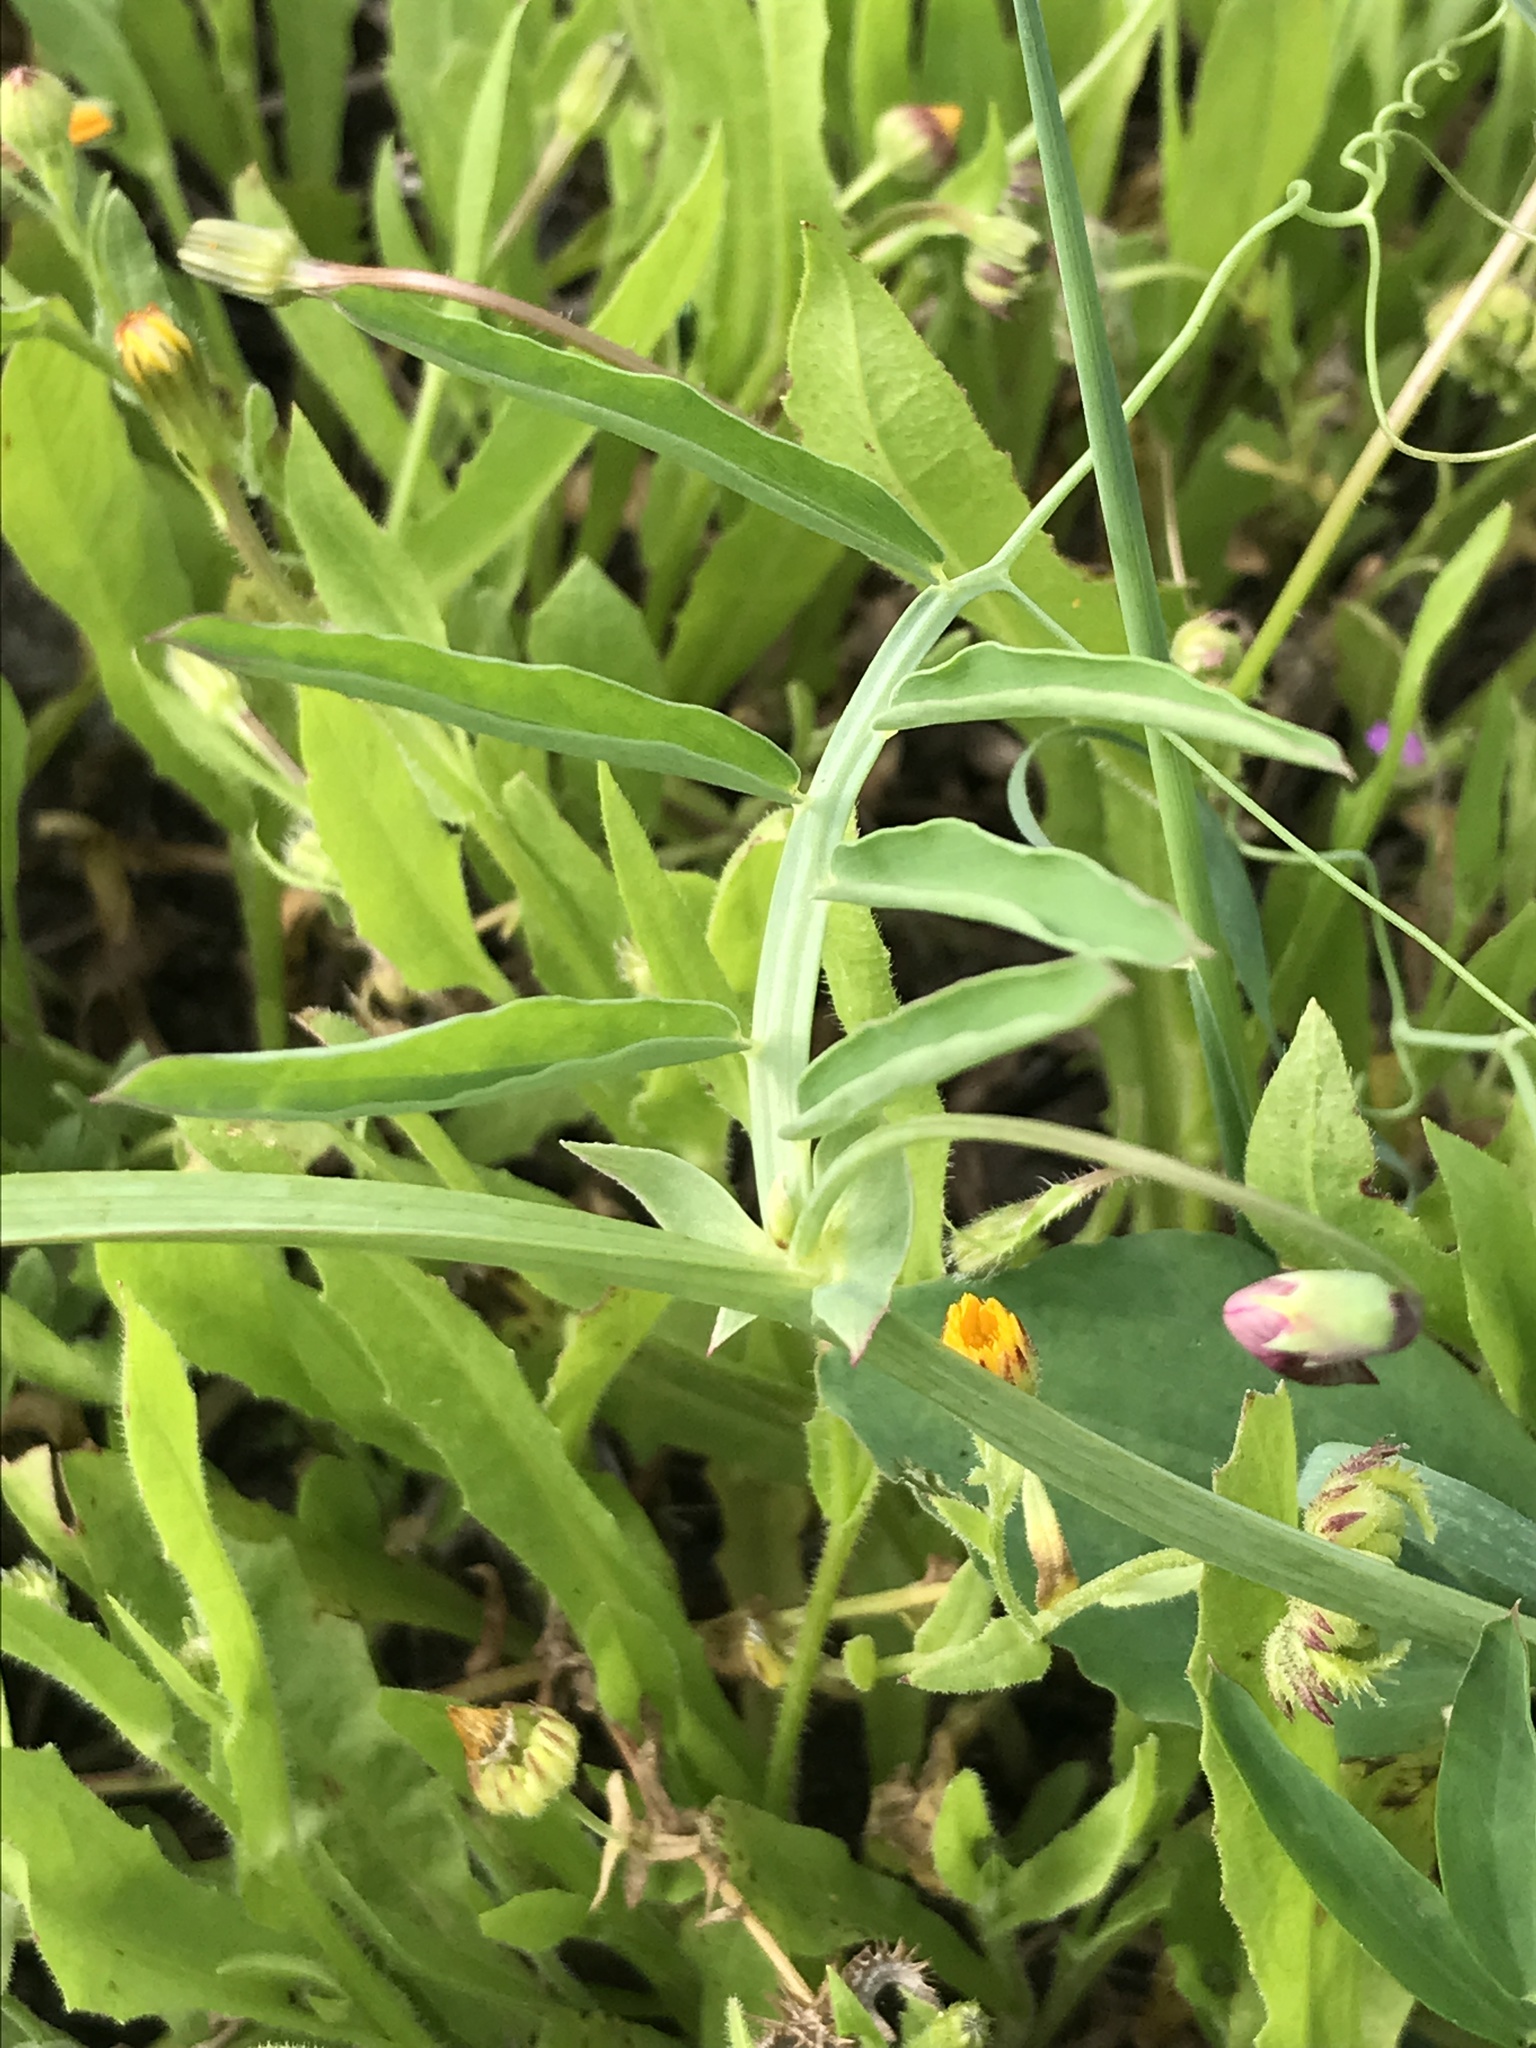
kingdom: Plantae
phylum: Tracheophyta
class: Magnoliopsida
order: Fabales
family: Fabaceae
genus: Lathyrus
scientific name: Lathyrus clymenum
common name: Spanish vetchling
